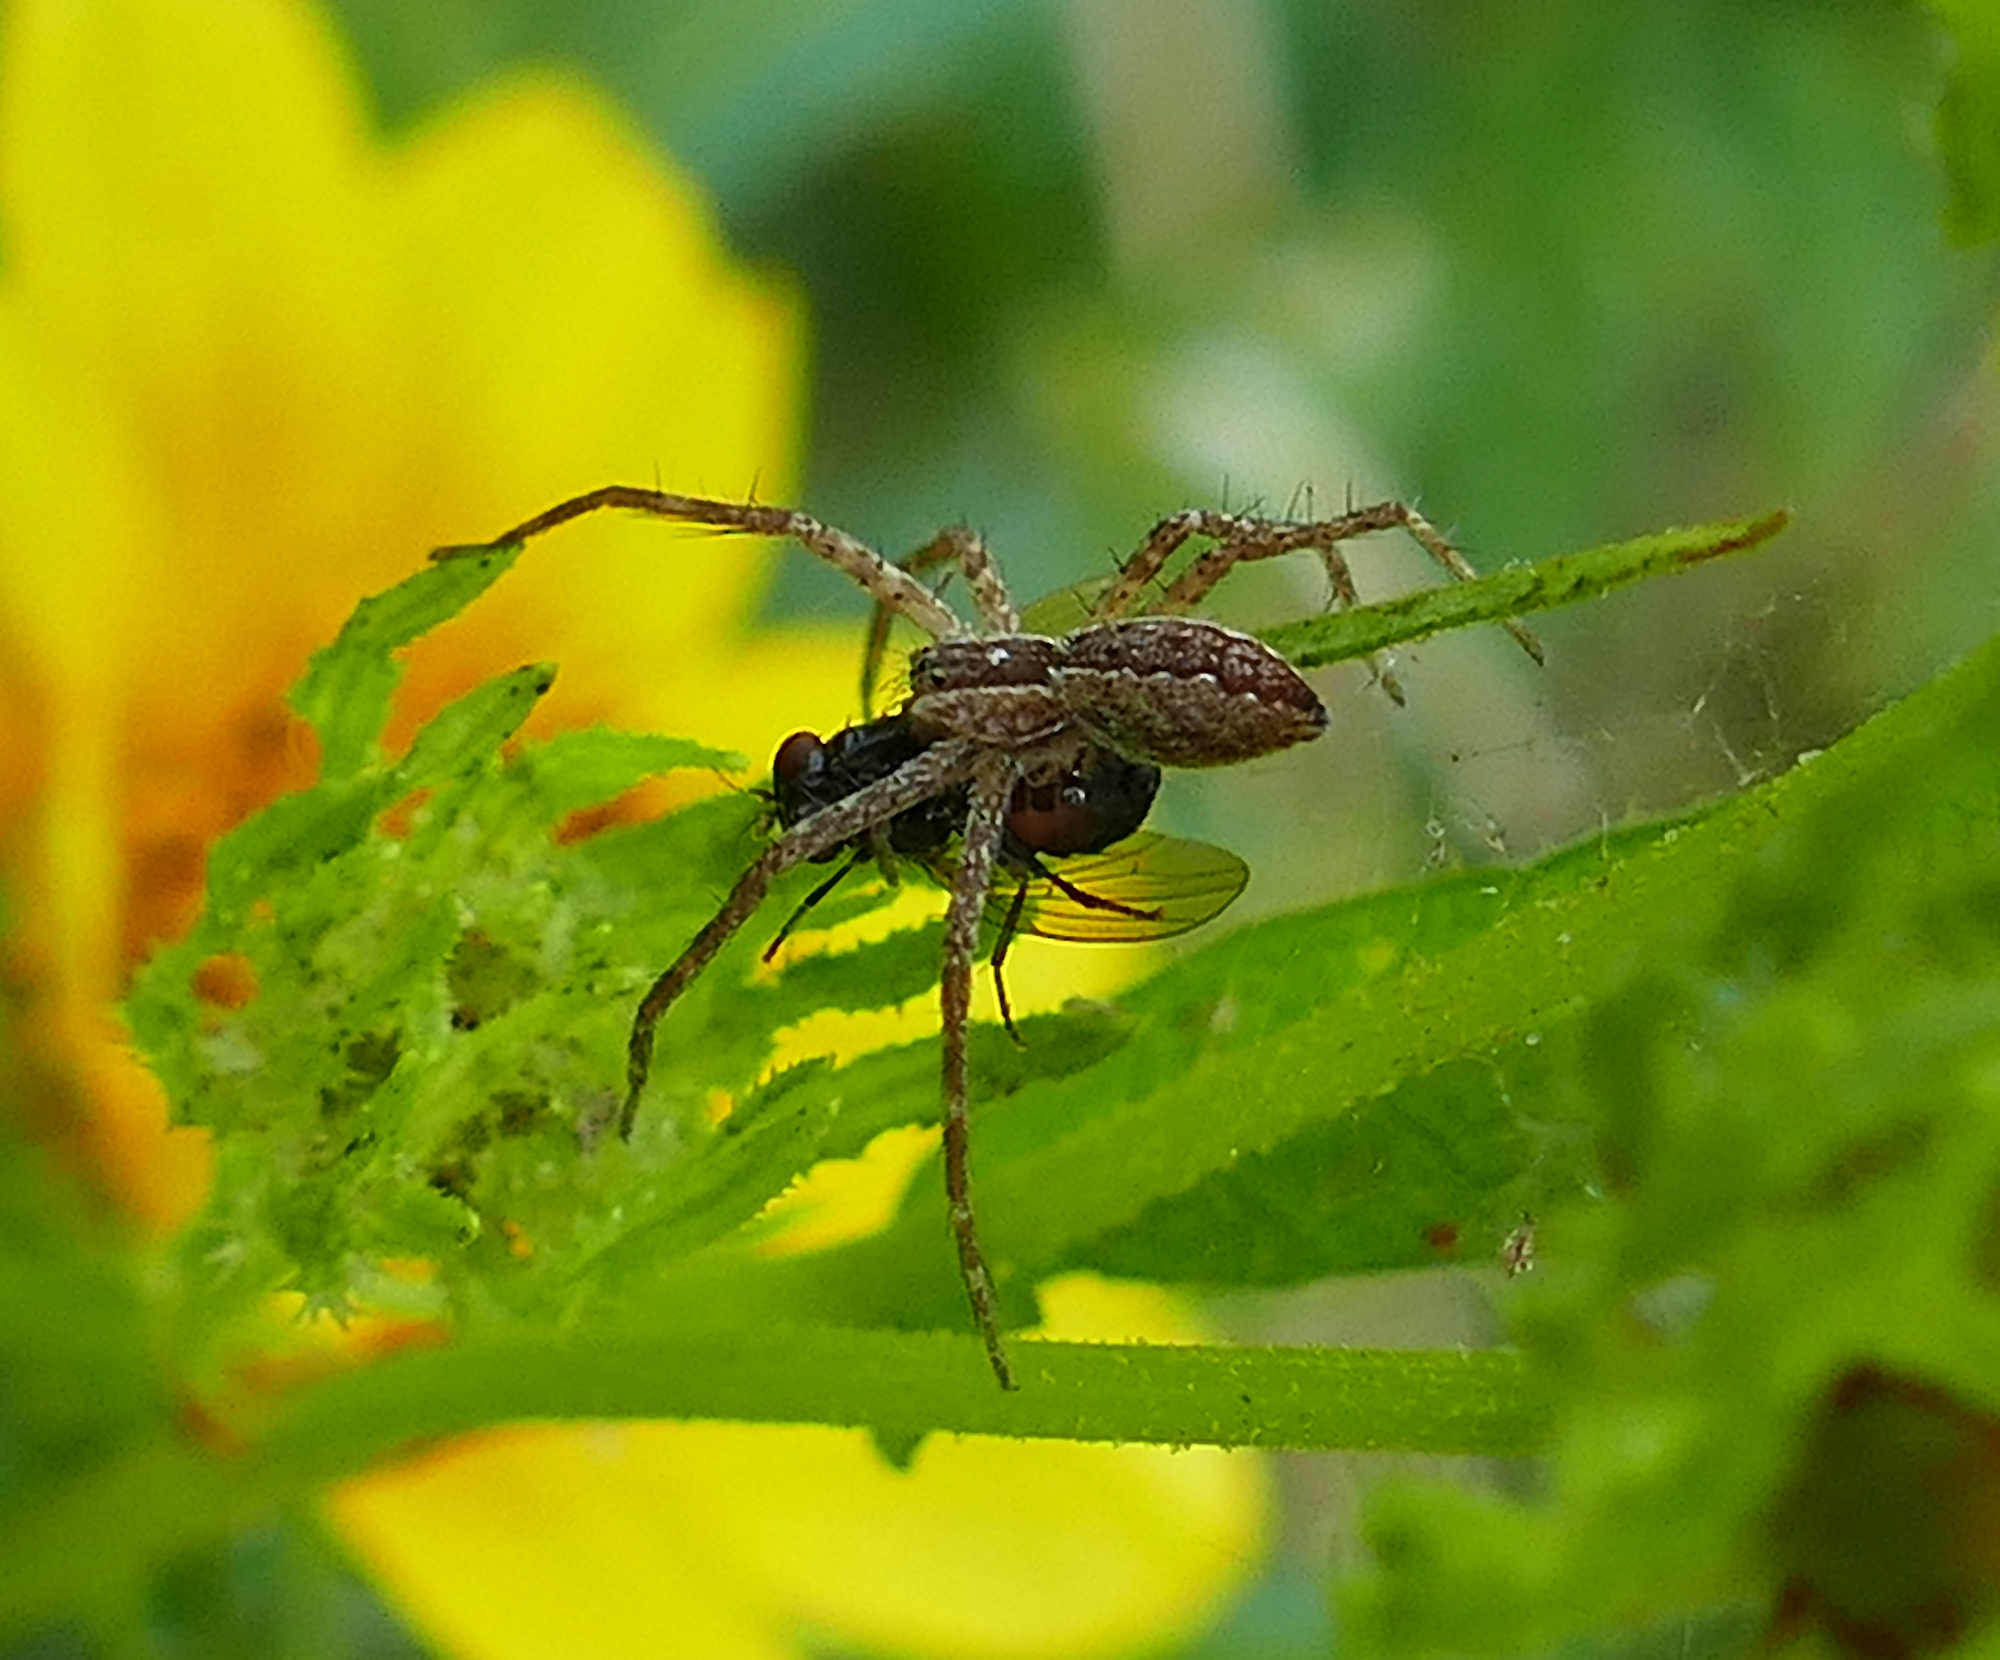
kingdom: Animalia
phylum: Arthropoda
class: Arachnida
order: Araneae
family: Pisauridae
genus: Pisaurina
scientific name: Pisaurina mira
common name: American nursery web spider
